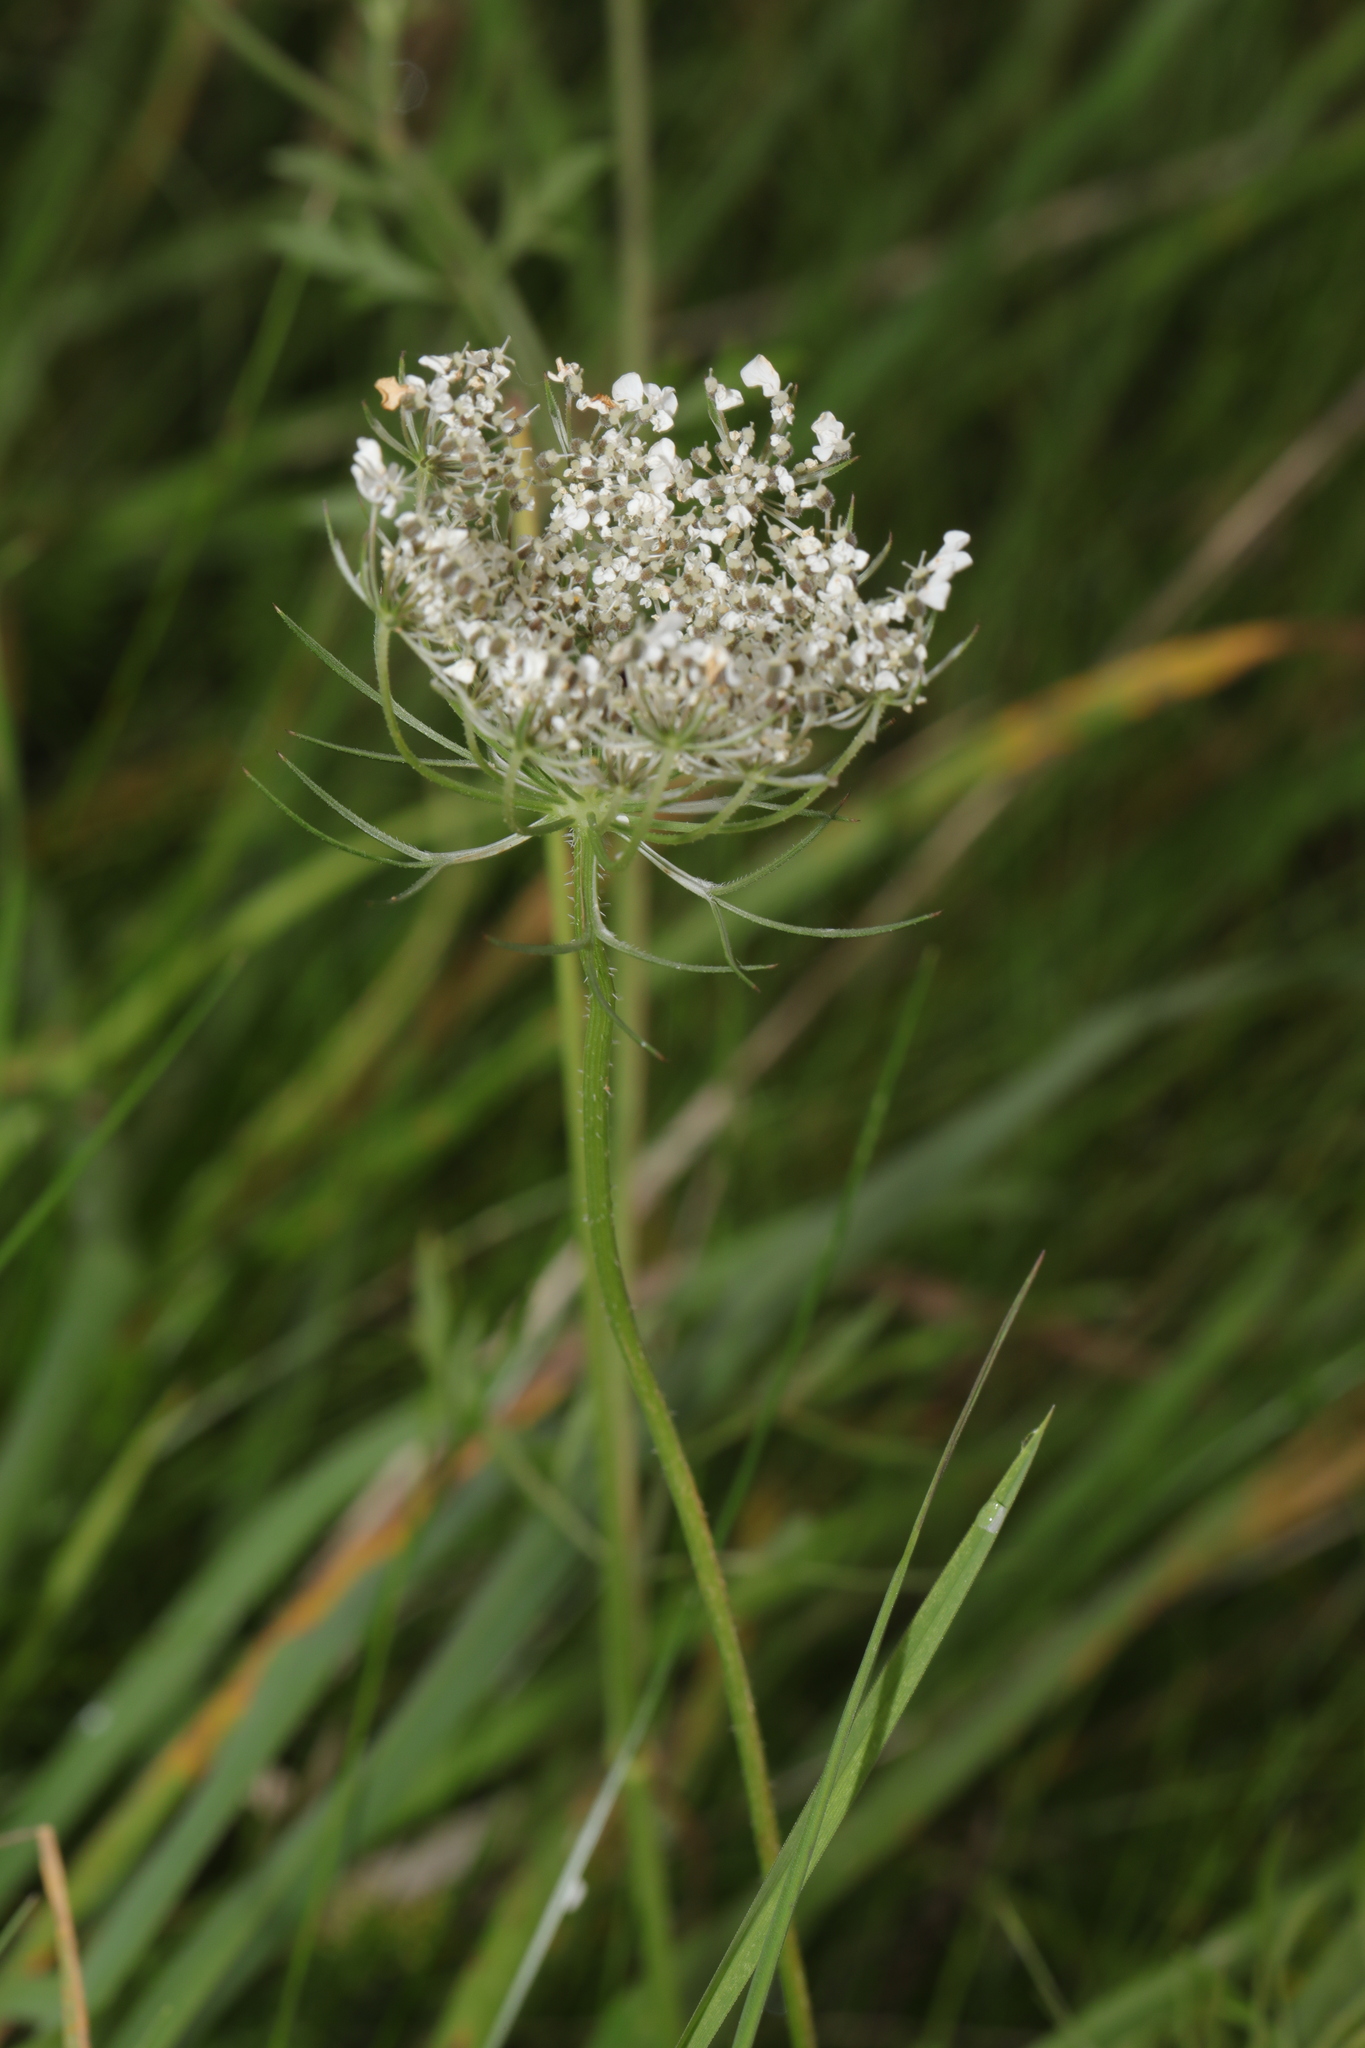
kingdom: Plantae
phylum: Tracheophyta
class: Magnoliopsida
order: Apiales
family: Apiaceae
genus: Daucus
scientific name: Daucus carota
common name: Wild carrot
